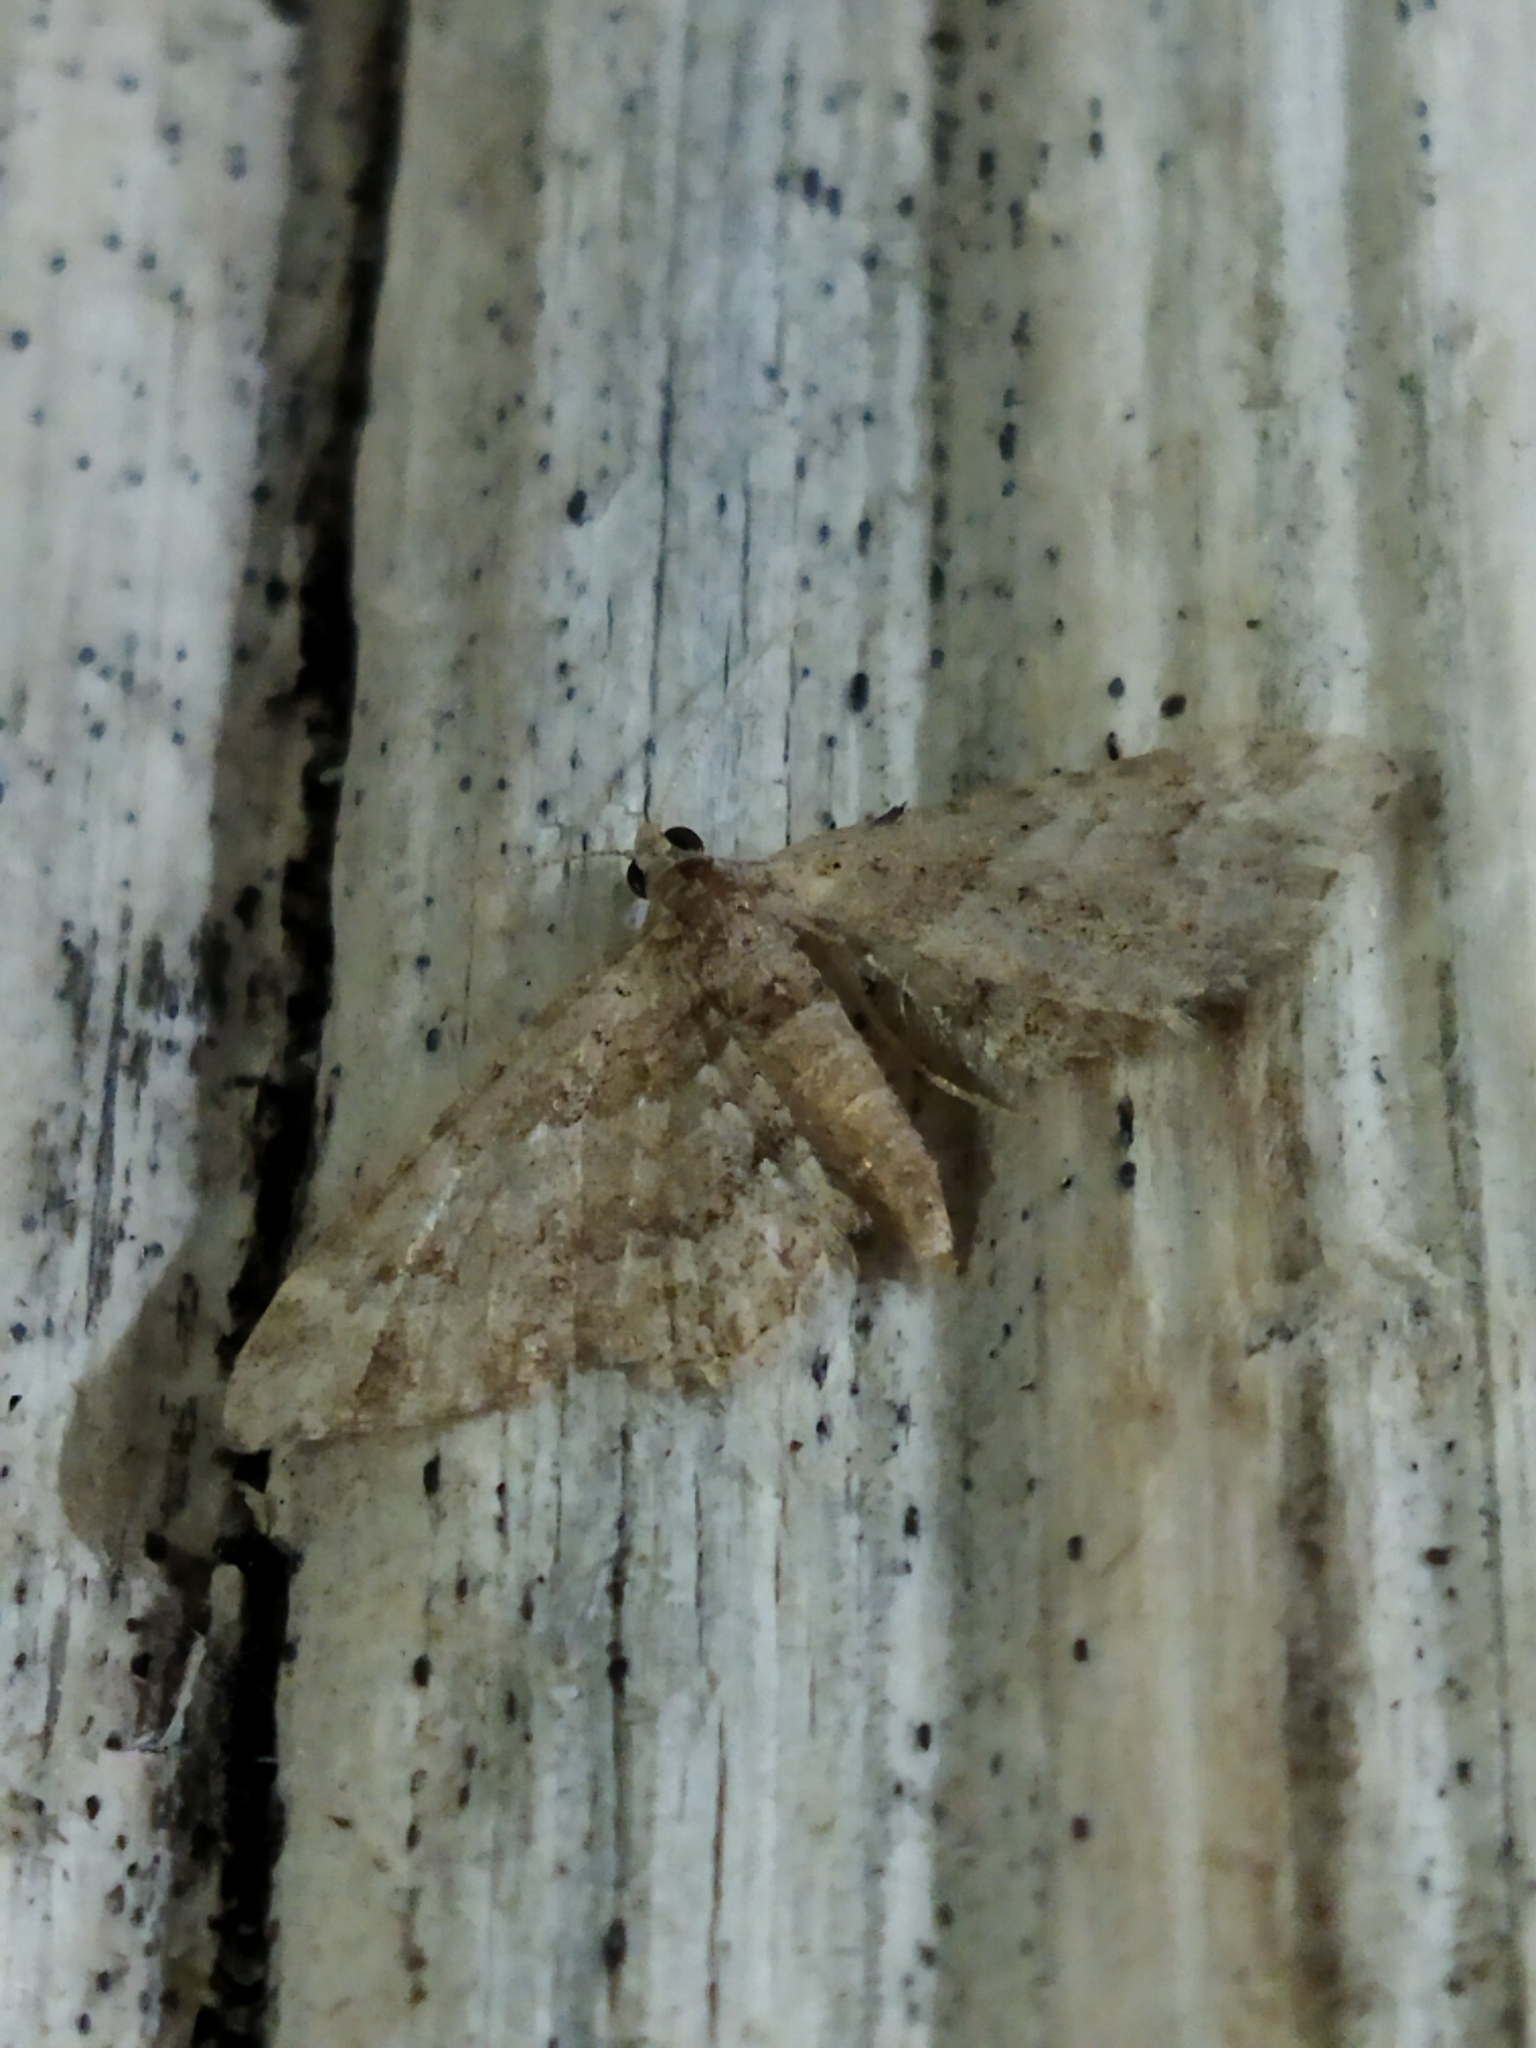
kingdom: Animalia
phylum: Arthropoda
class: Insecta
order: Lepidoptera
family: Geometridae
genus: Gymnoscelis
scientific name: Gymnoscelis rufifasciata
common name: Double-striped pug
